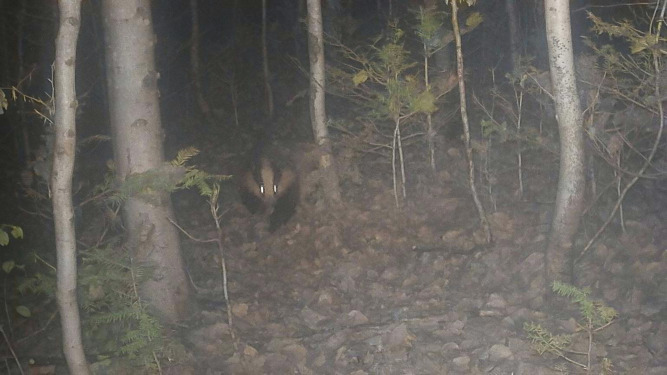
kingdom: Animalia
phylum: Chordata
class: Mammalia
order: Carnivora
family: Mustelidae
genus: Meles
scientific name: Meles meles
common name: Eurasian badger
